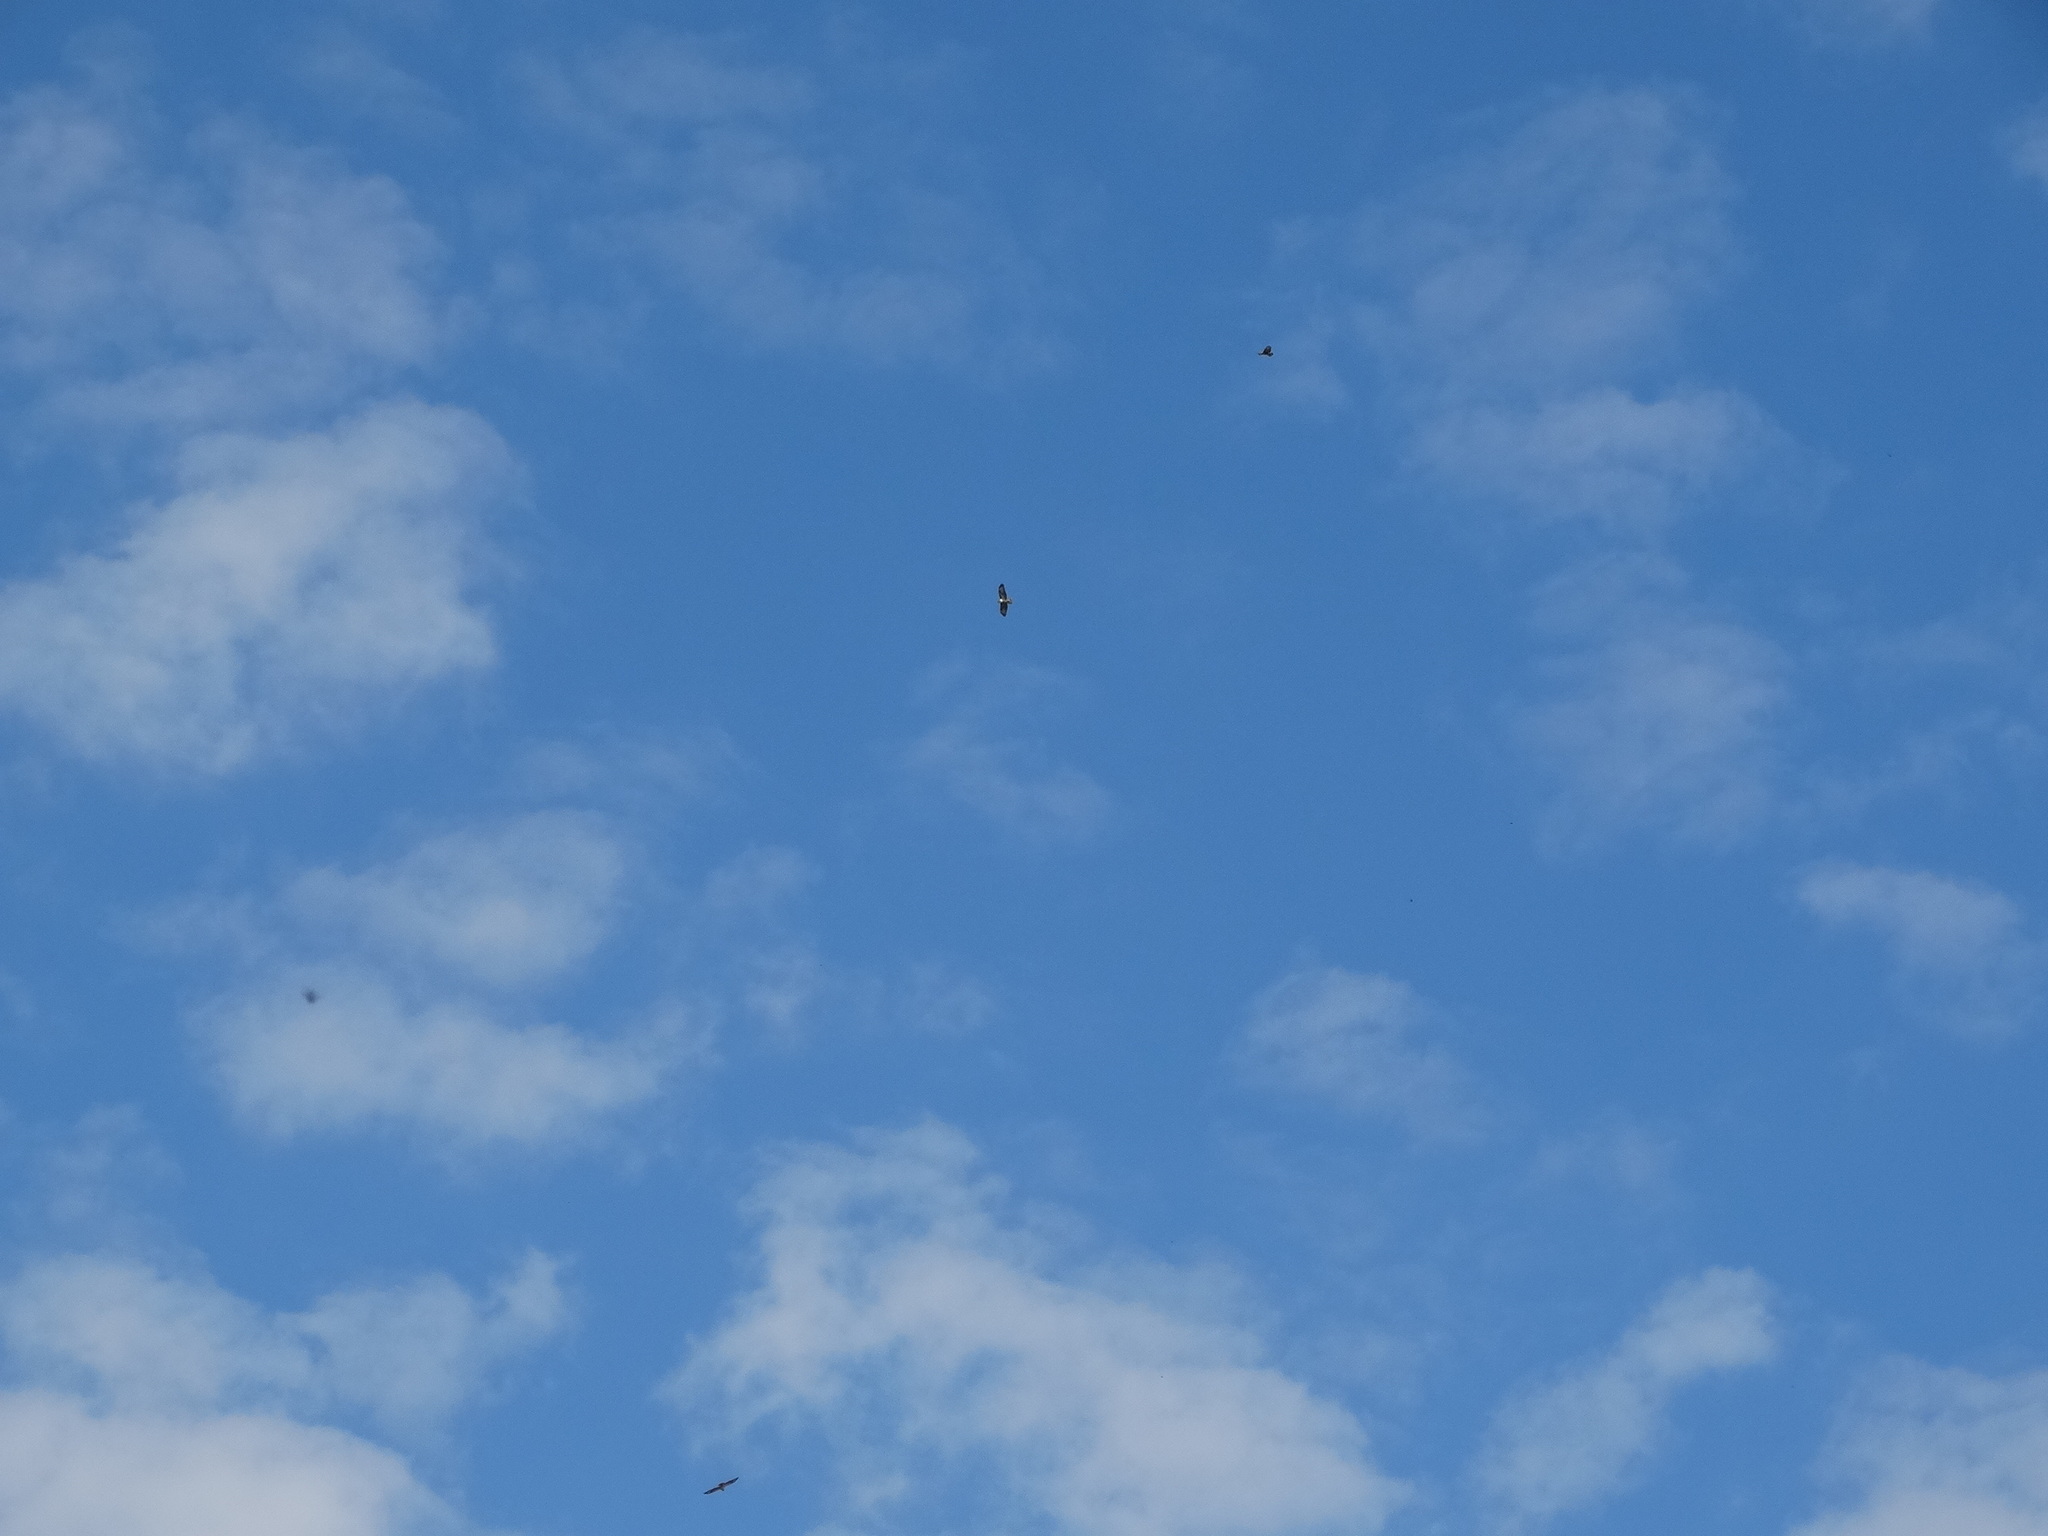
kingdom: Animalia
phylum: Chordata
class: Aves
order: Accipitriformes
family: Accipitridae
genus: Buteo
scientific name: Buteo buteo
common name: Common buzzard
